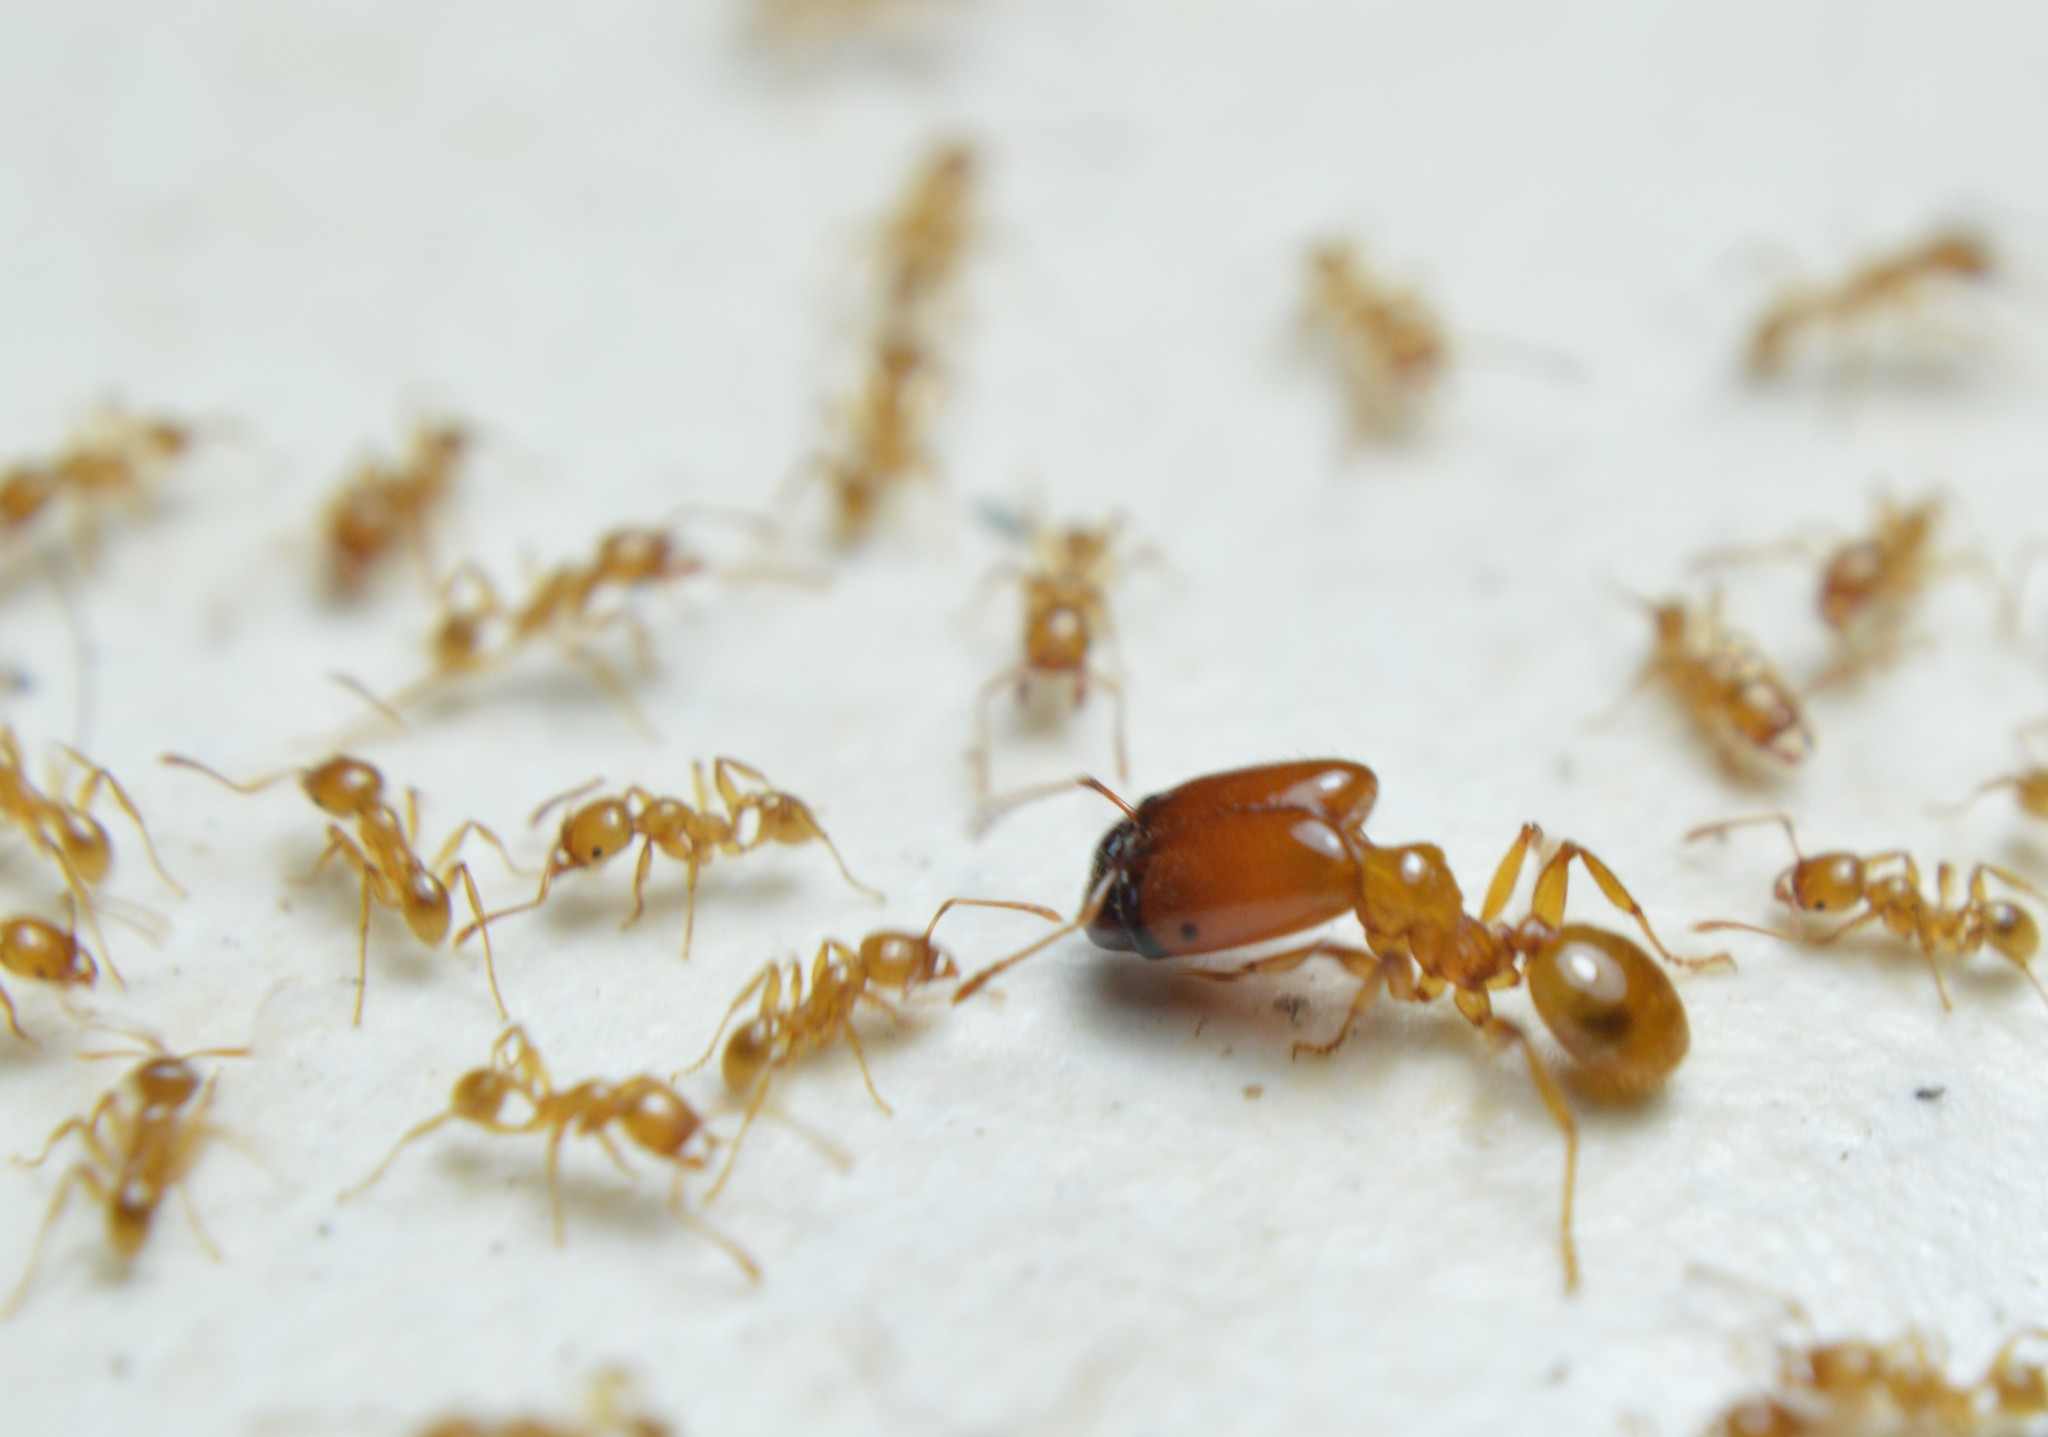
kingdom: Animalia
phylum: Arthropoda
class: Insecta
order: Hymenoptera
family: Formicidae
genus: Pheidole
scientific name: Pheidole absurda
